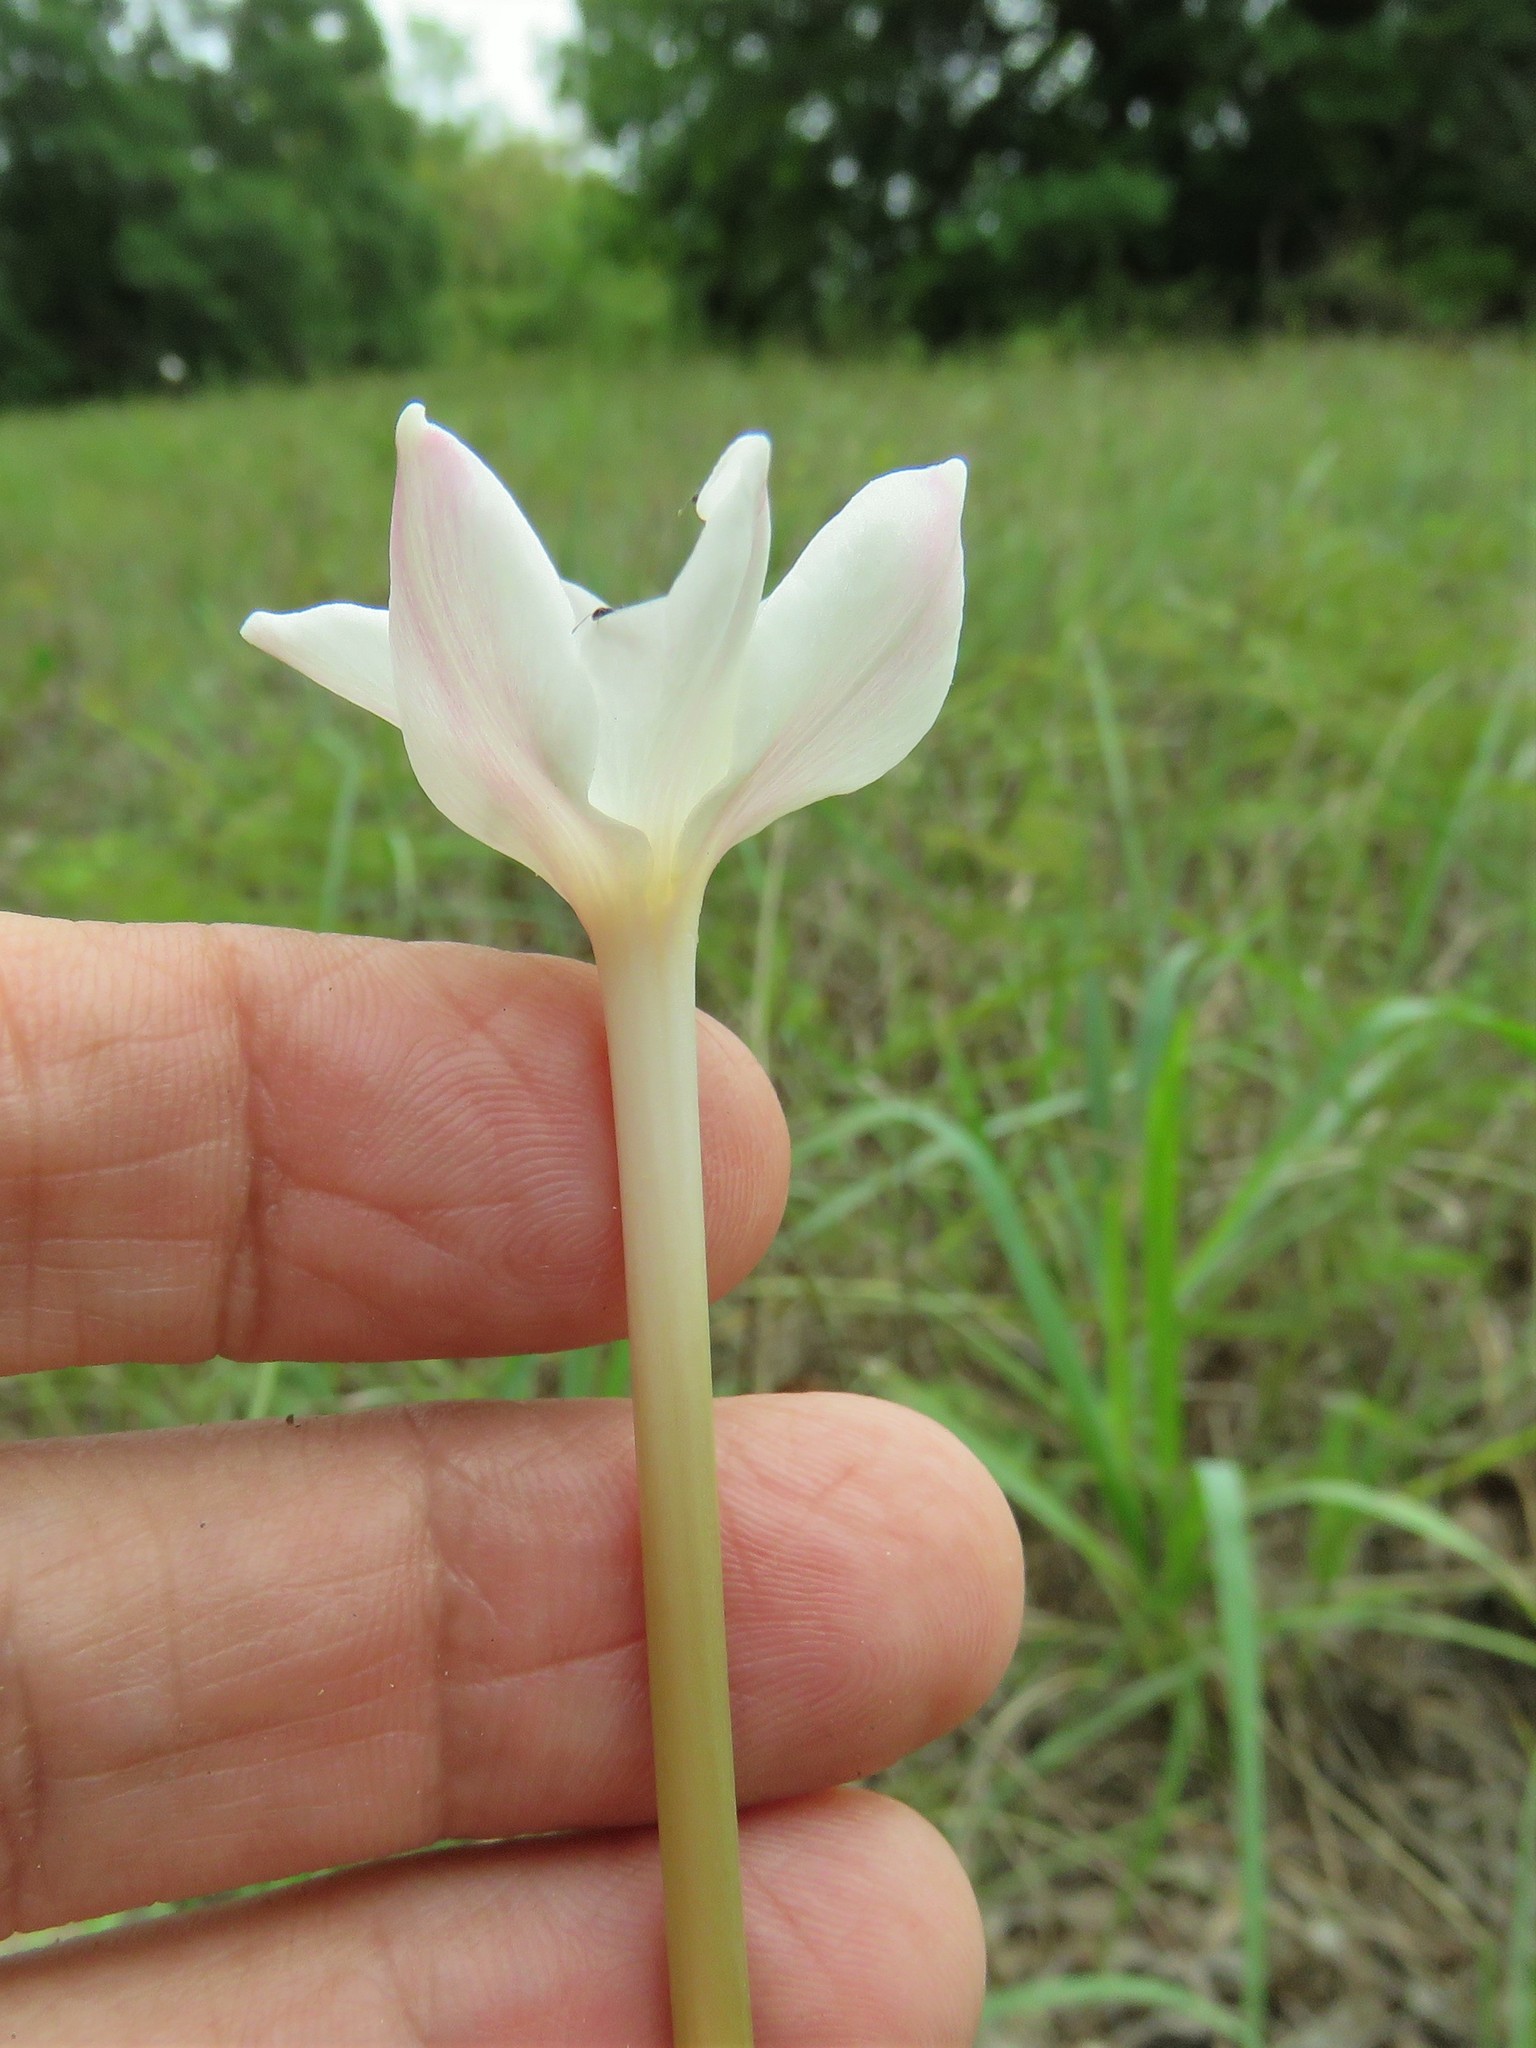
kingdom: Plantae
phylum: Tracheophyta
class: Liliopsida
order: Asparagales
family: Amaryllidaceae
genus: Zephyranthes
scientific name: Zephyranthes chlorosolen
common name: Evening rain-lily
